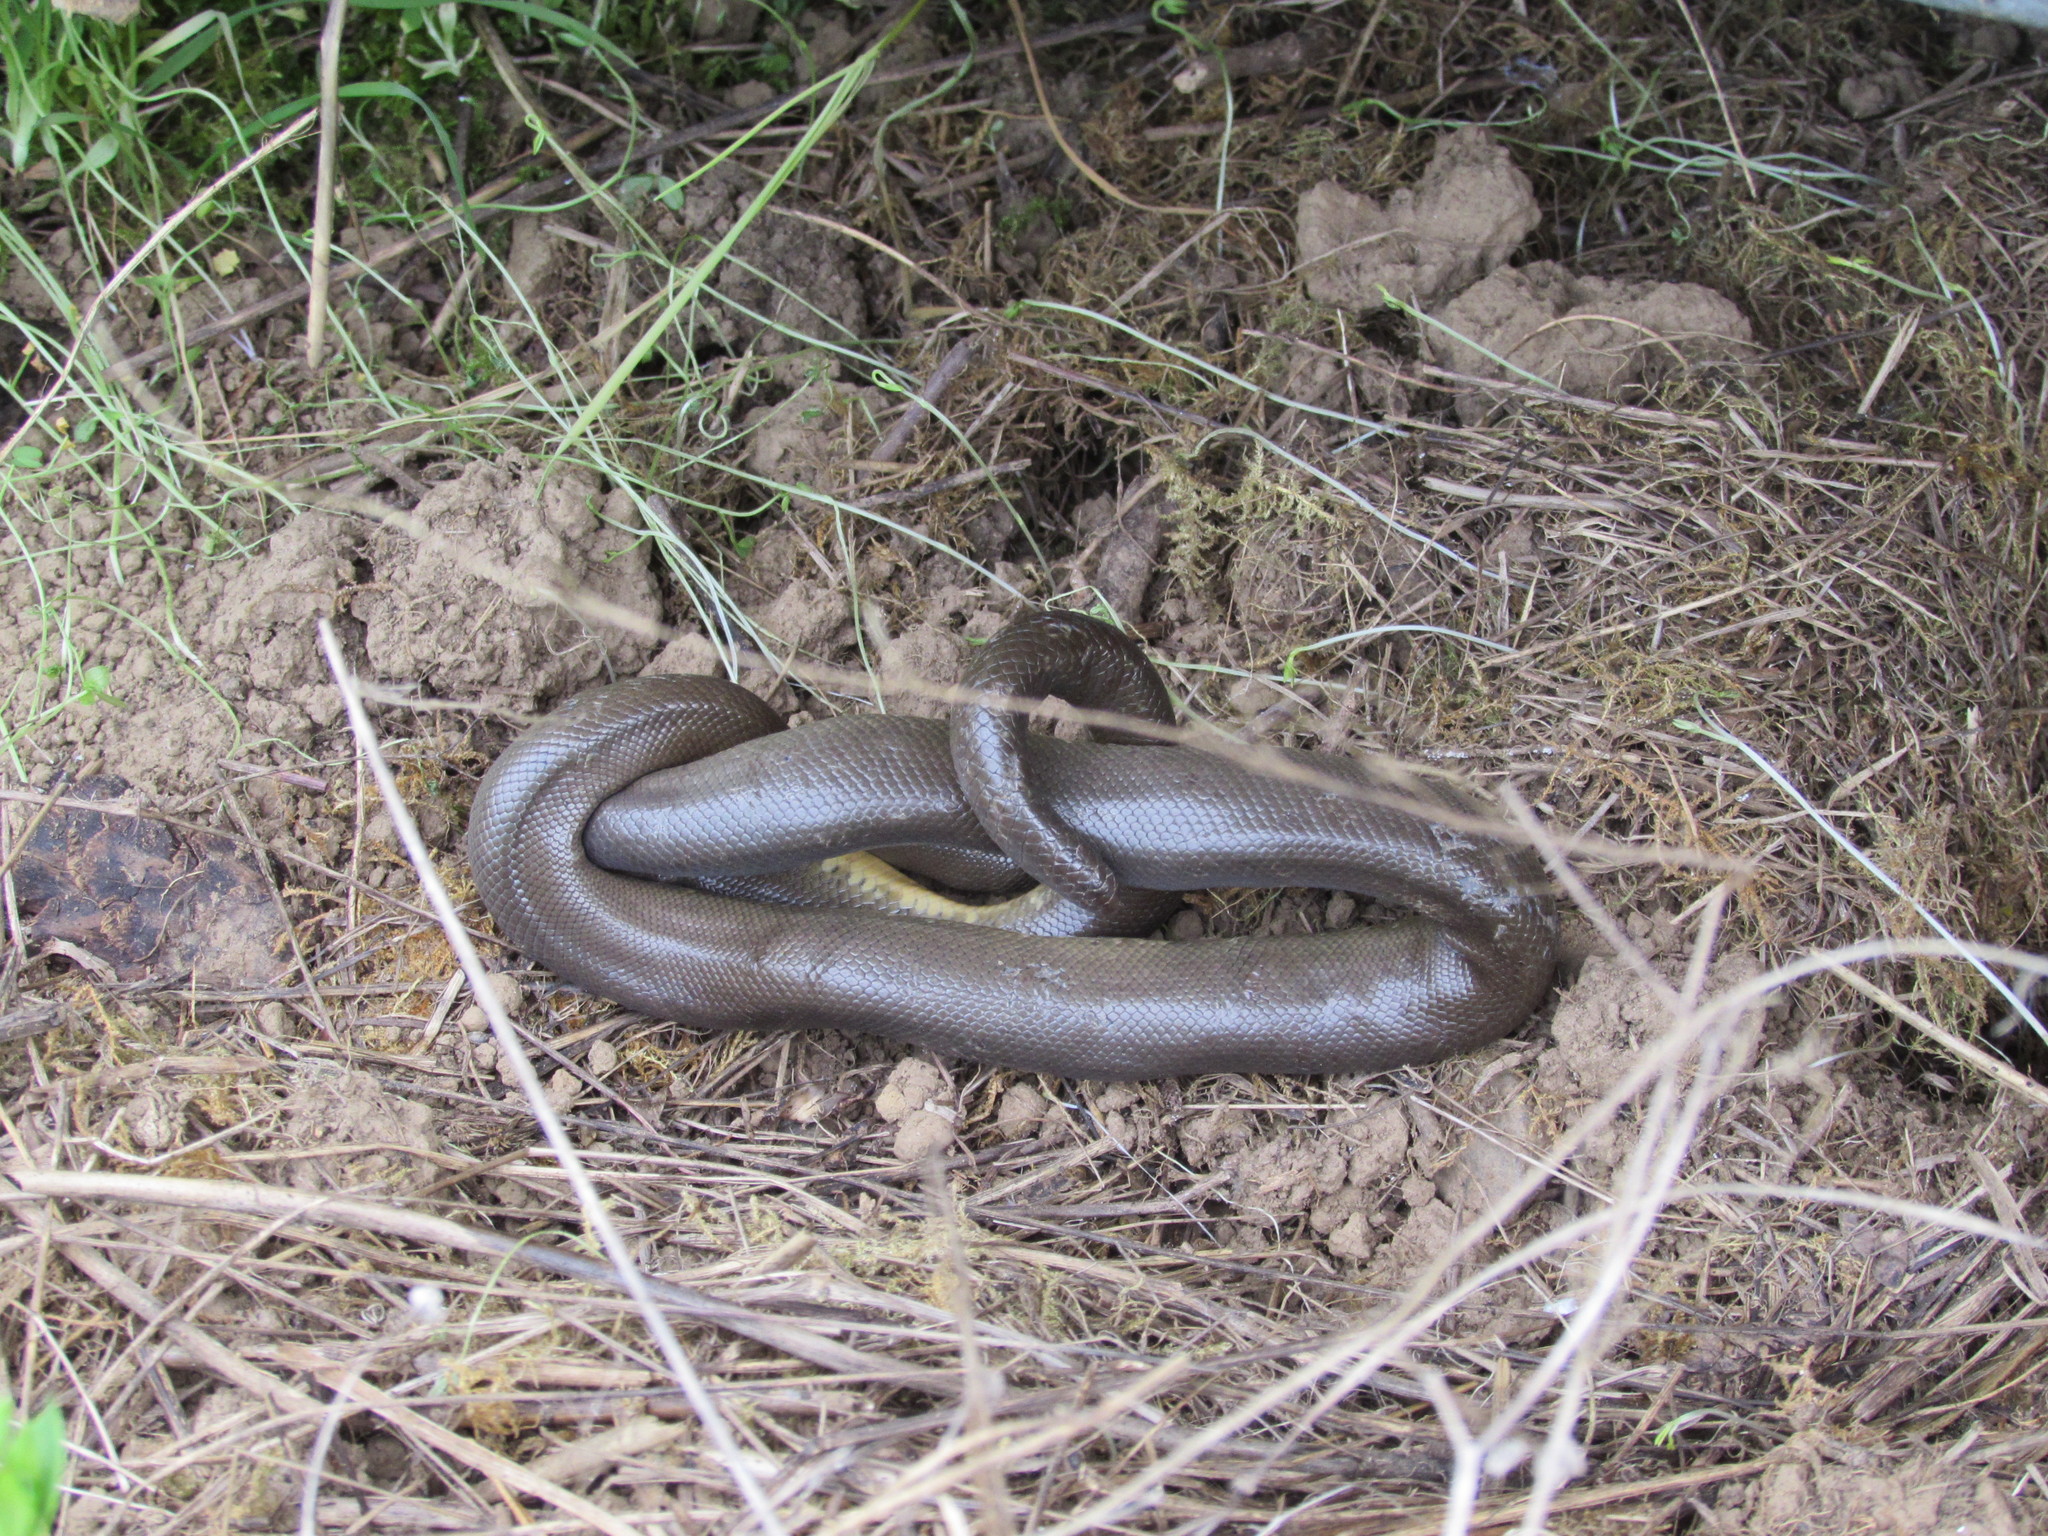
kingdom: Animalia
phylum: Chordata
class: Squamata
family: Boidae
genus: Charina
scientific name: Charina bottae
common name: Northern rubber boa
